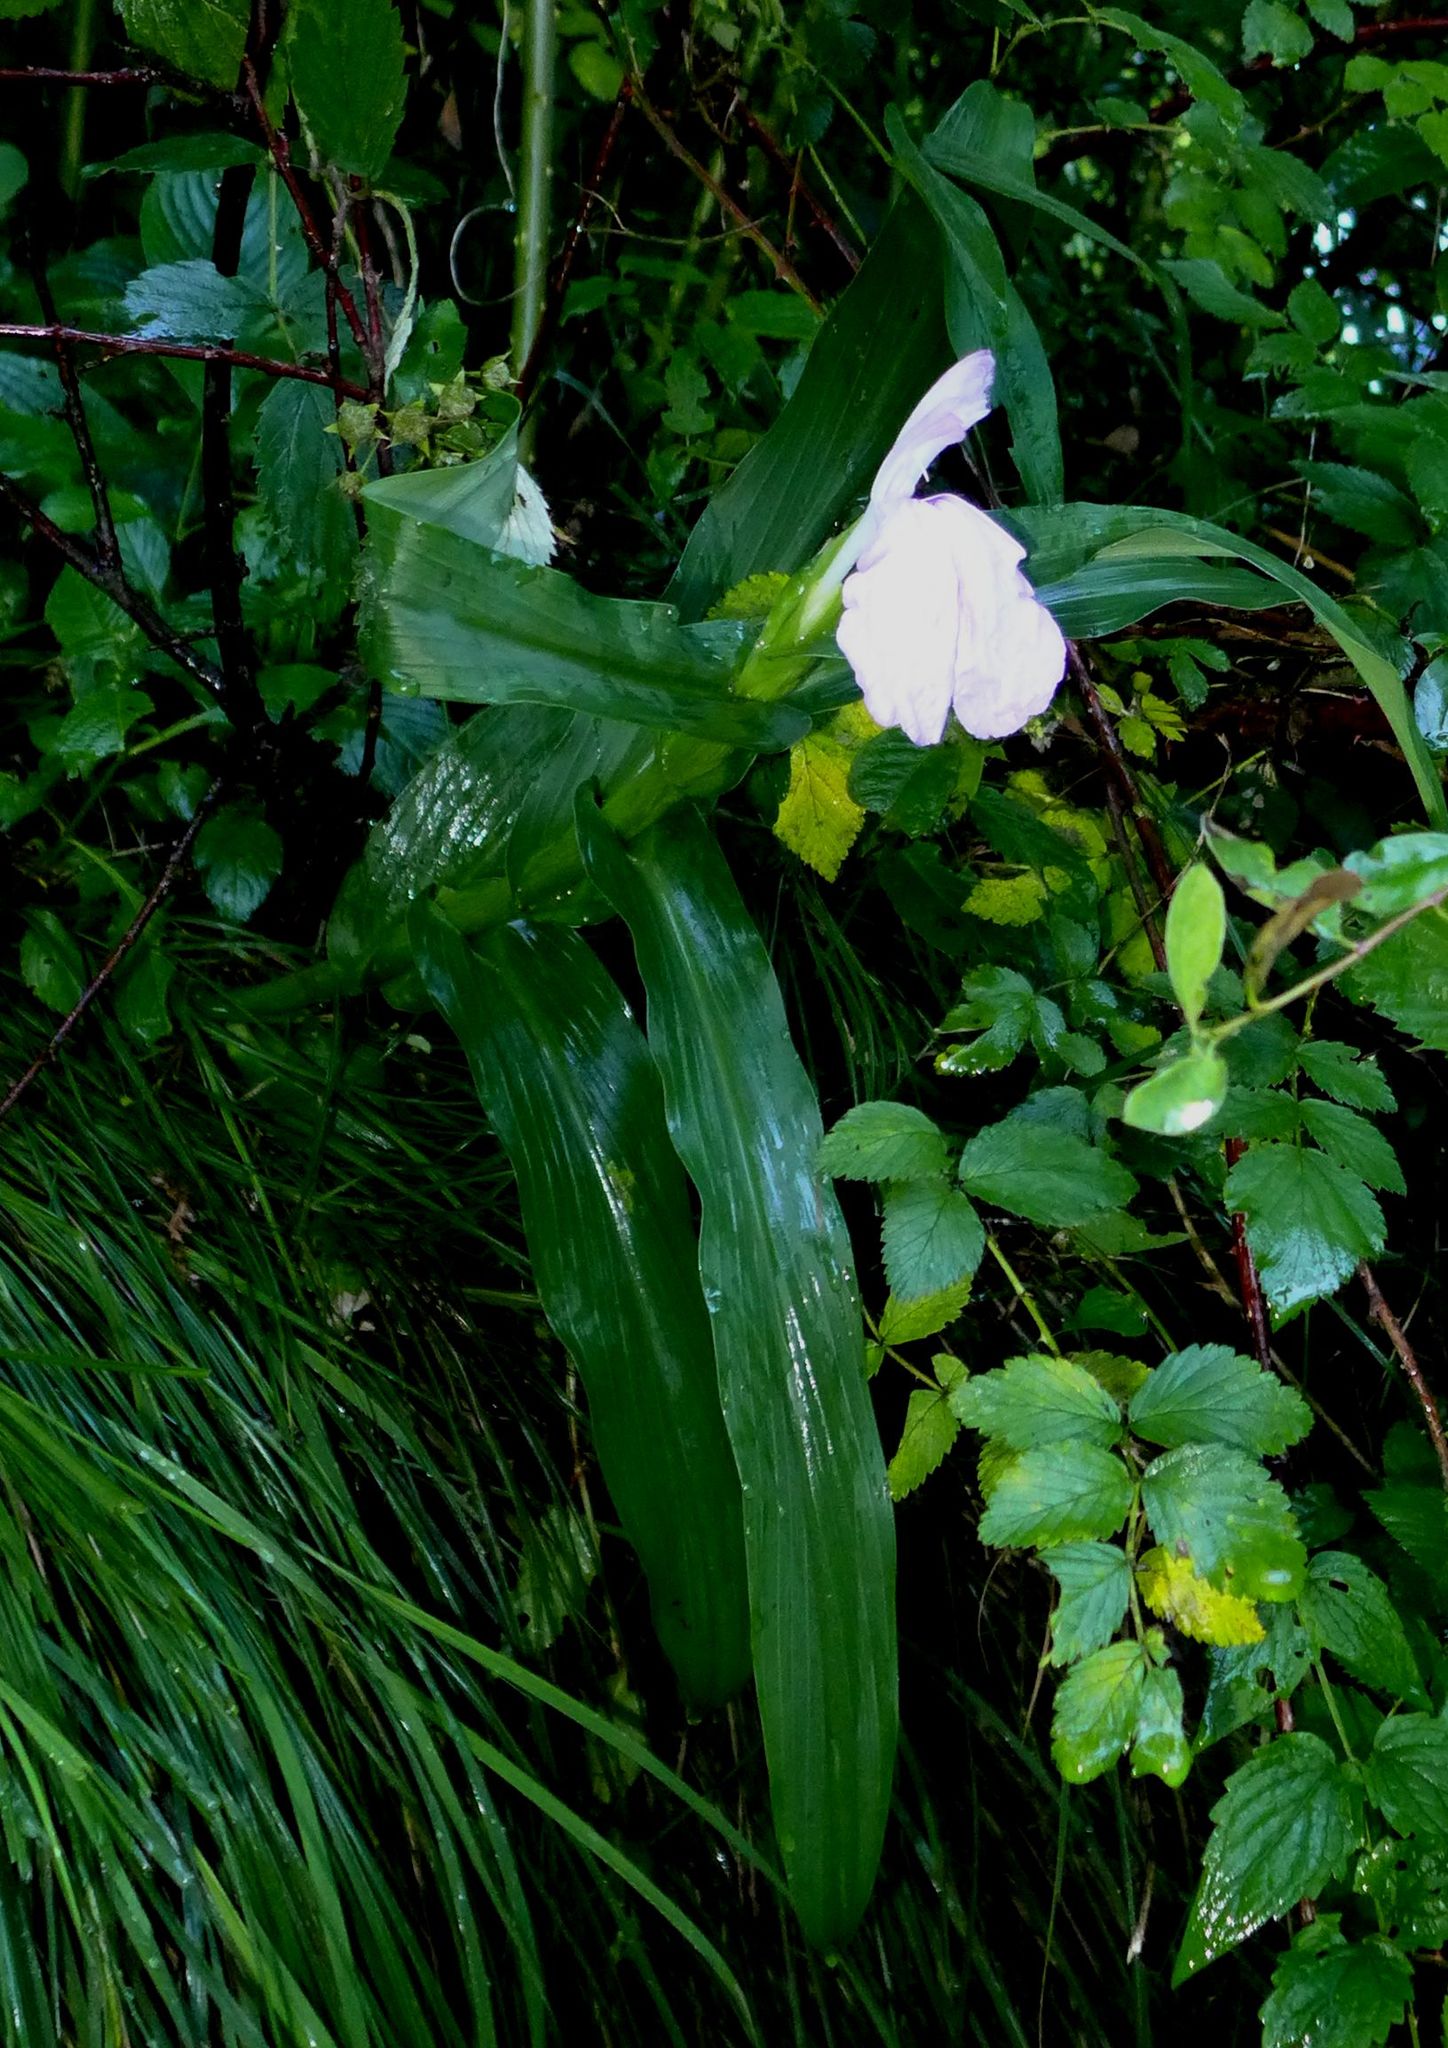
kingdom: Plantae
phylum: Tracheophyta
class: Liliopsida
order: Zingiberales
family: Zingiberaceae
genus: Roscoea
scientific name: Roscoea purpurea
